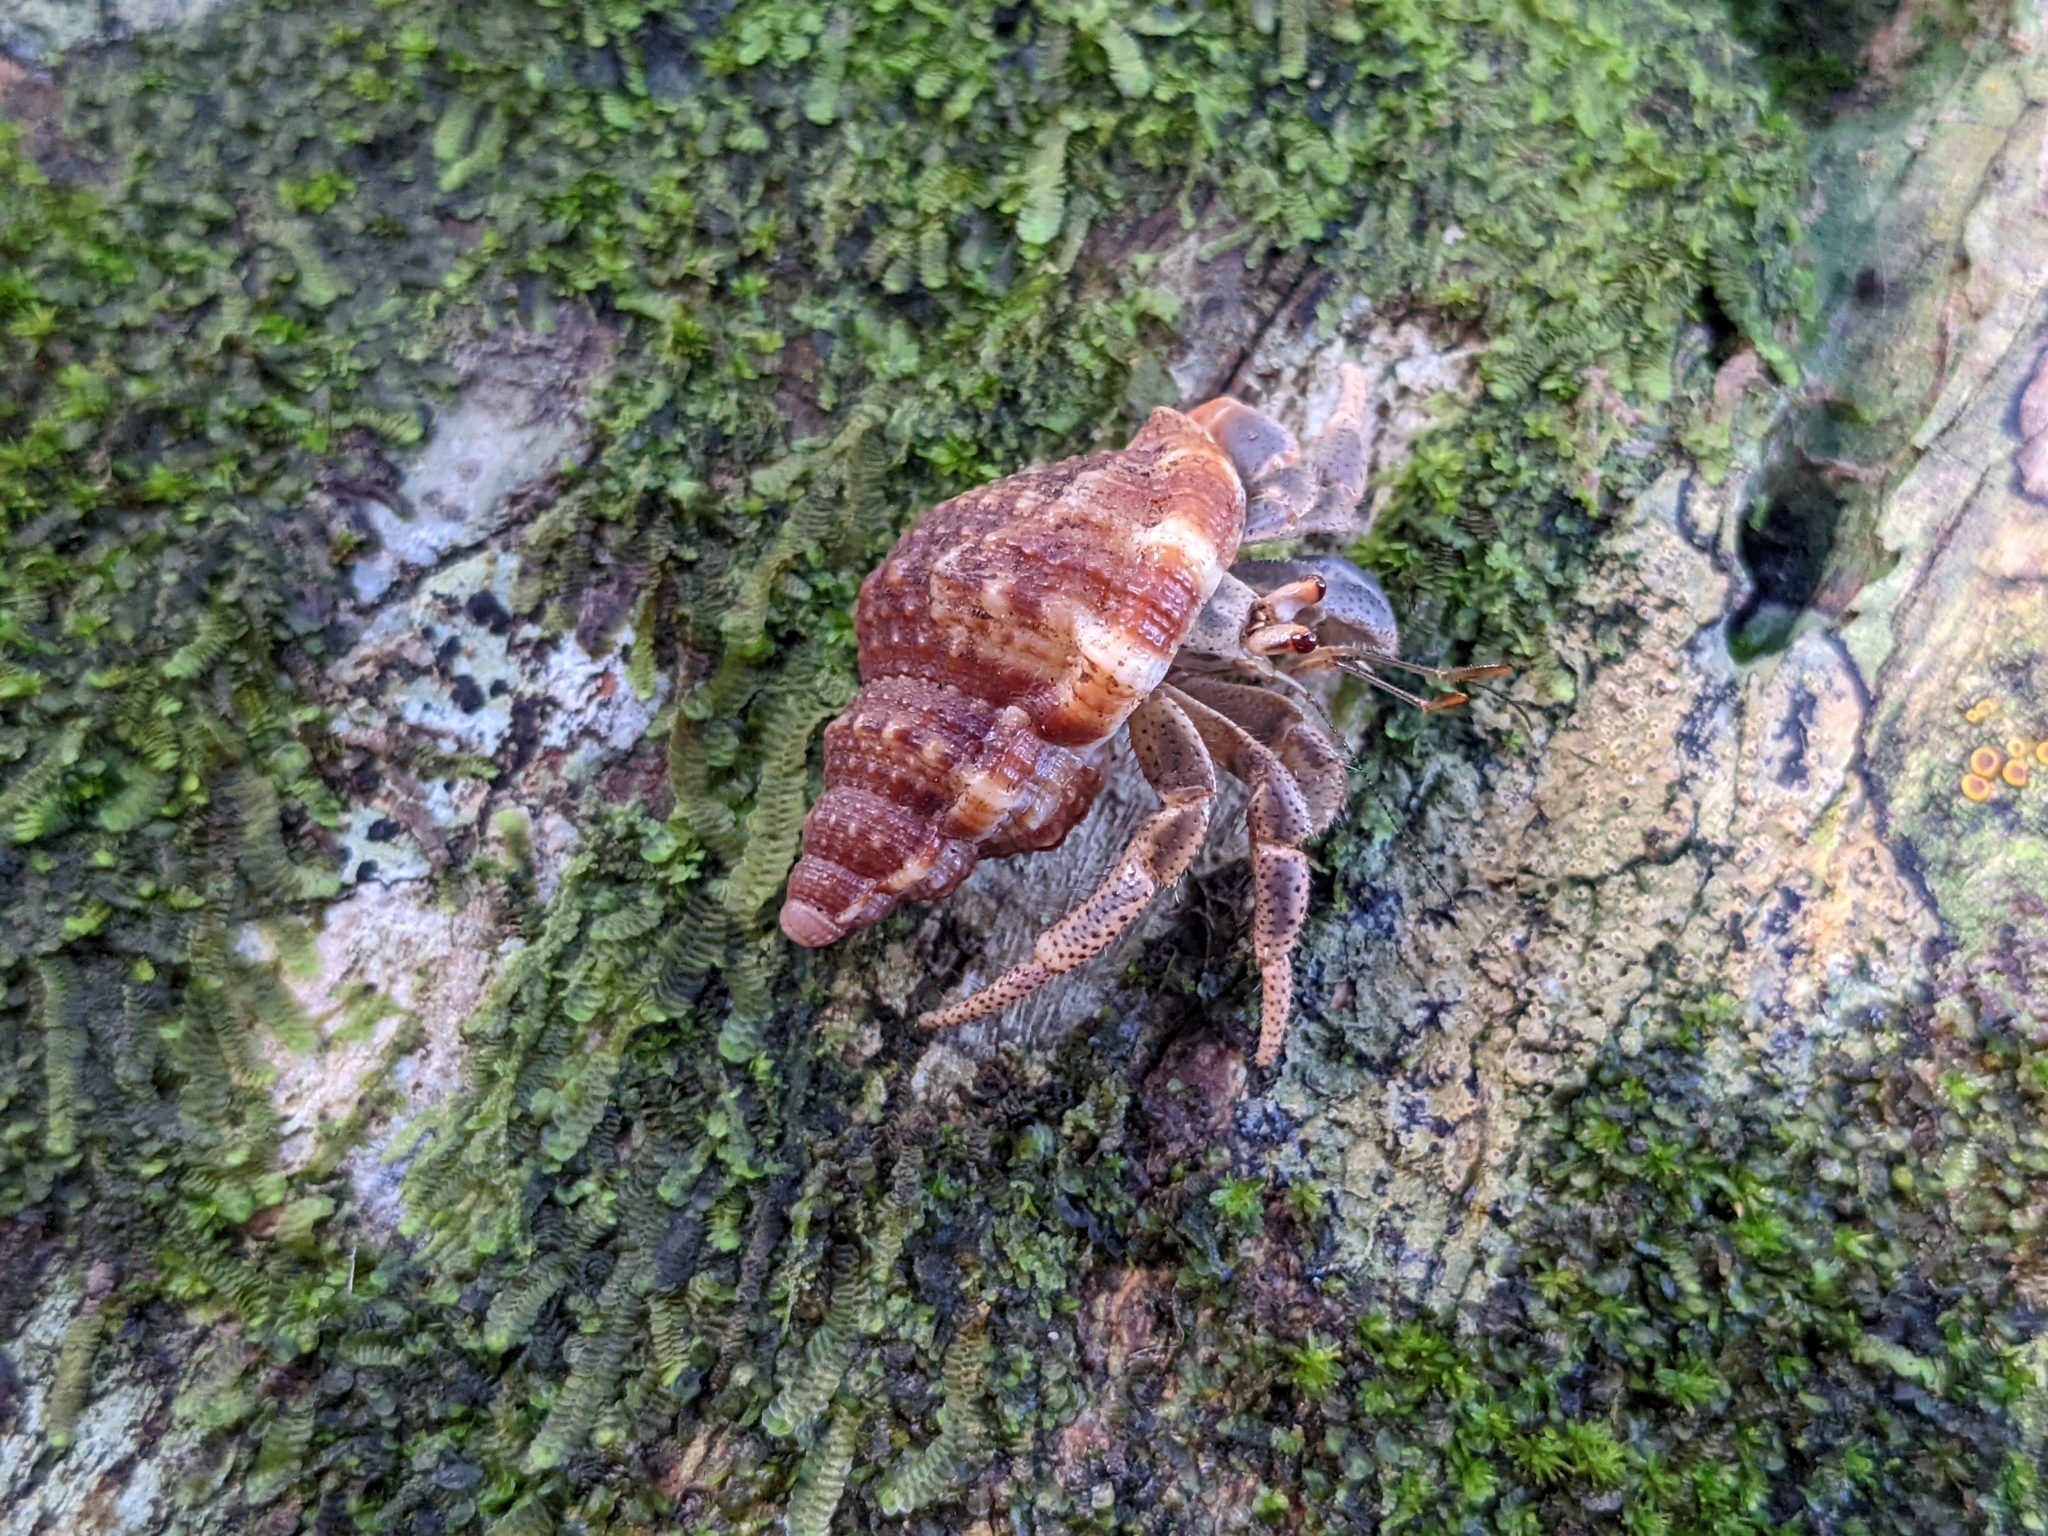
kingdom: Animalia
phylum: Arthropoda
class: Malacostraca
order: Decapoda
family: Coenobitidae
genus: Coenobita
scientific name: Coenobita clypeatus
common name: Caribbean hermit crab
